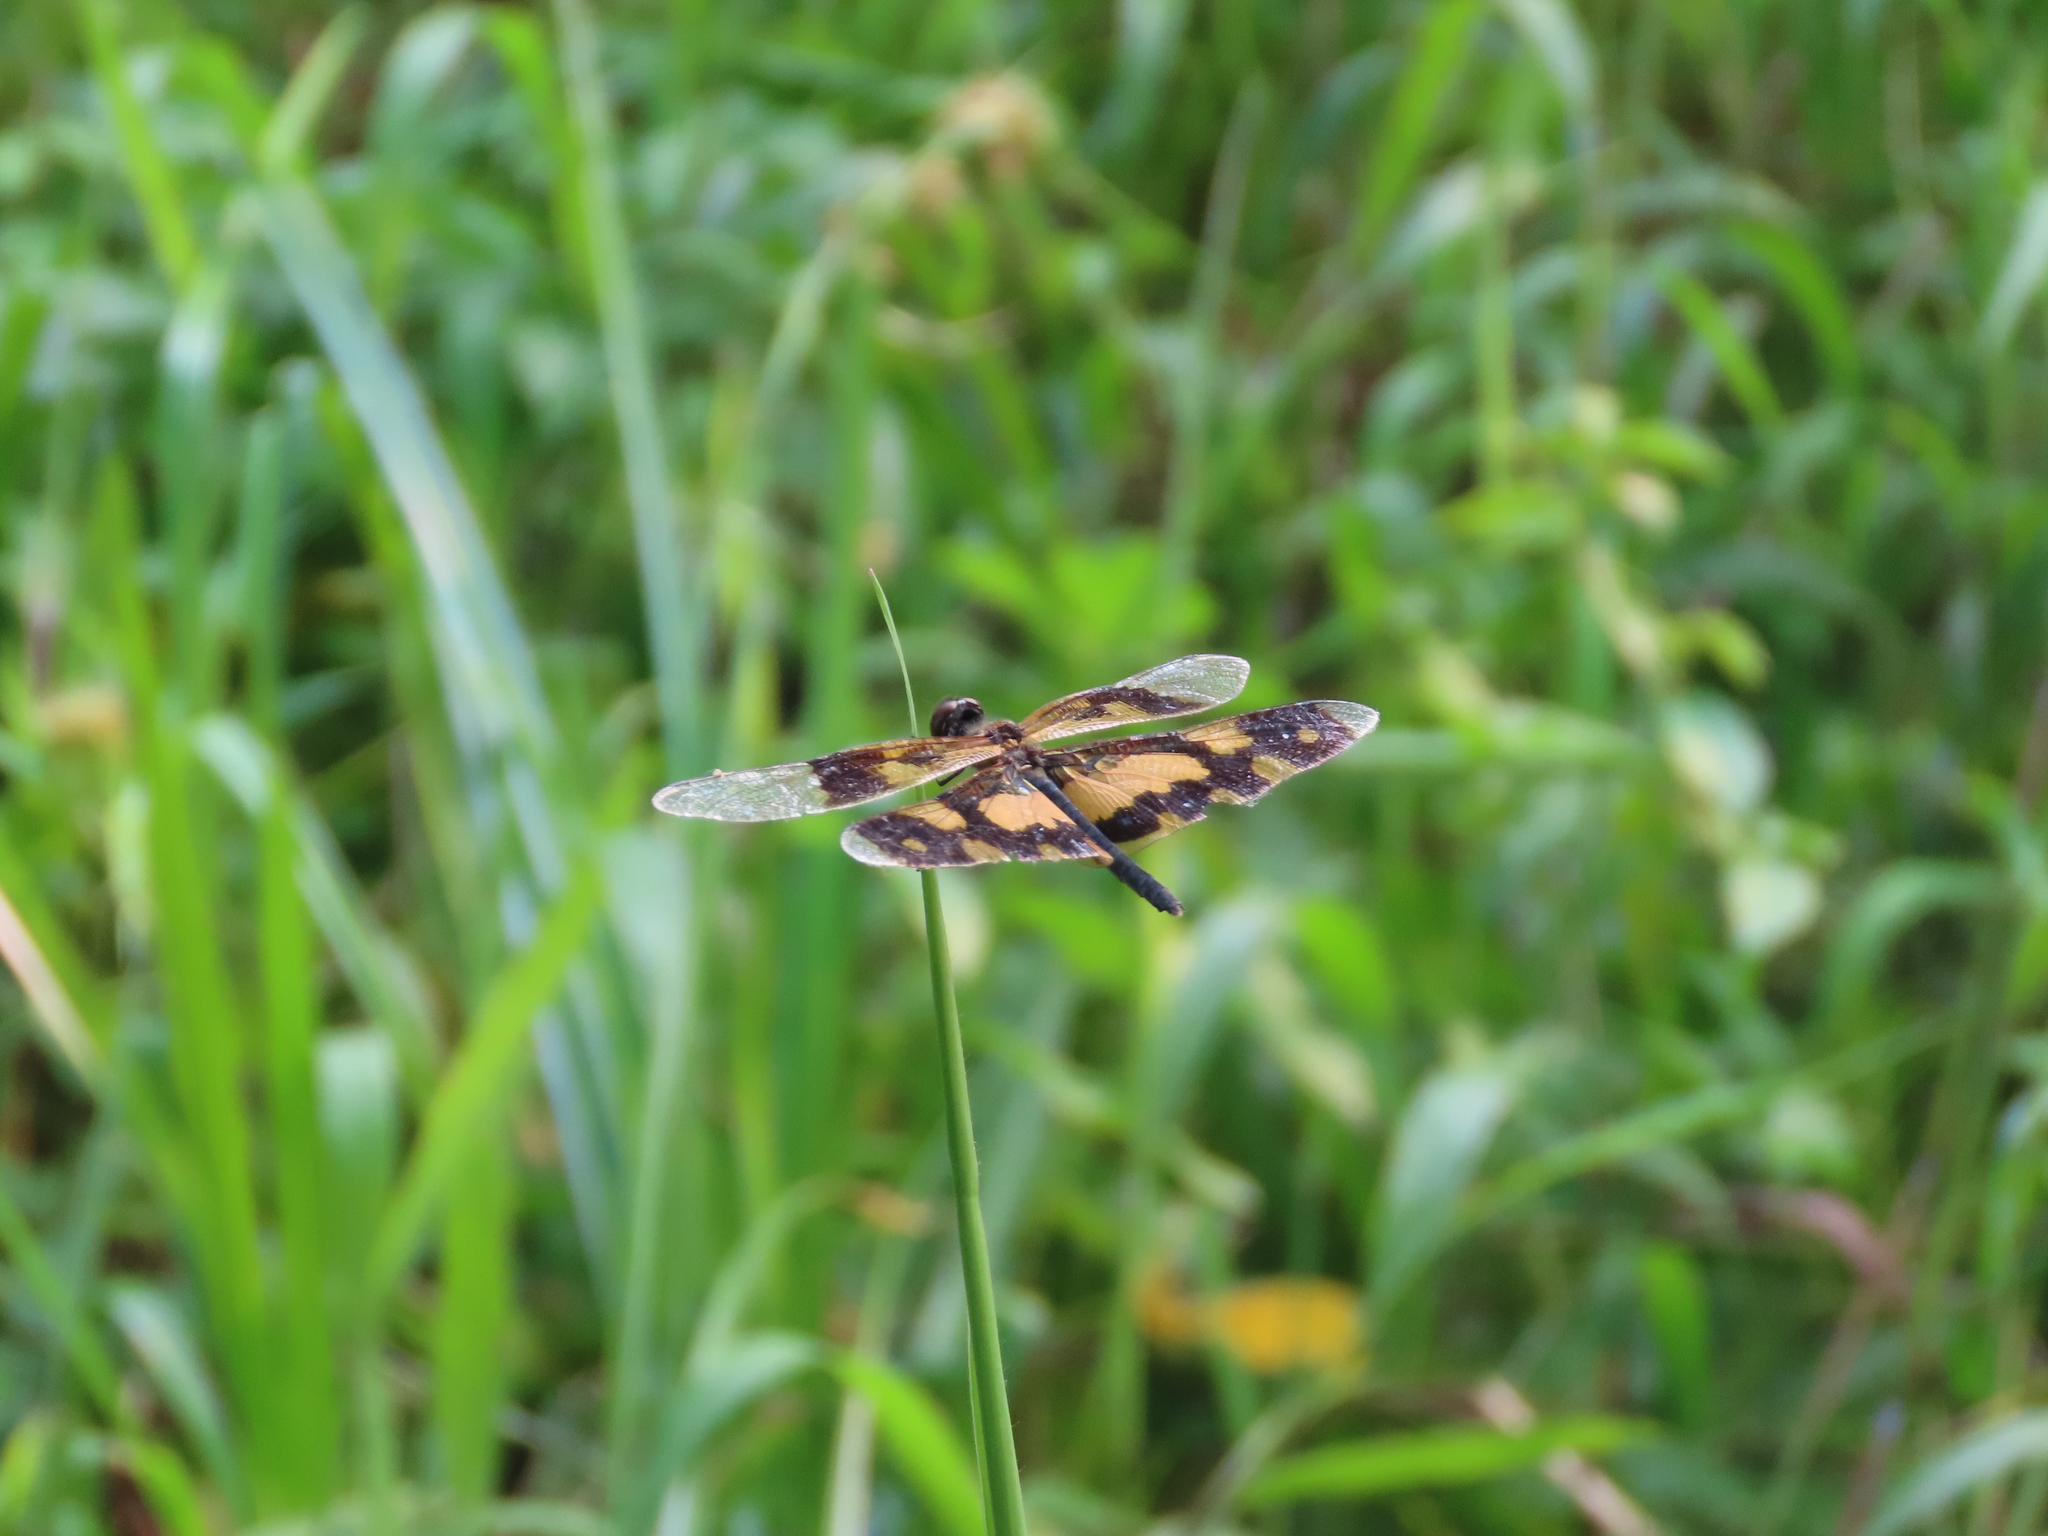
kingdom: Animalia
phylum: Arthropoda
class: Insecta
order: Odonata
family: Libellulidae
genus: Rhyothemis
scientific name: Rhyothemis variegata
